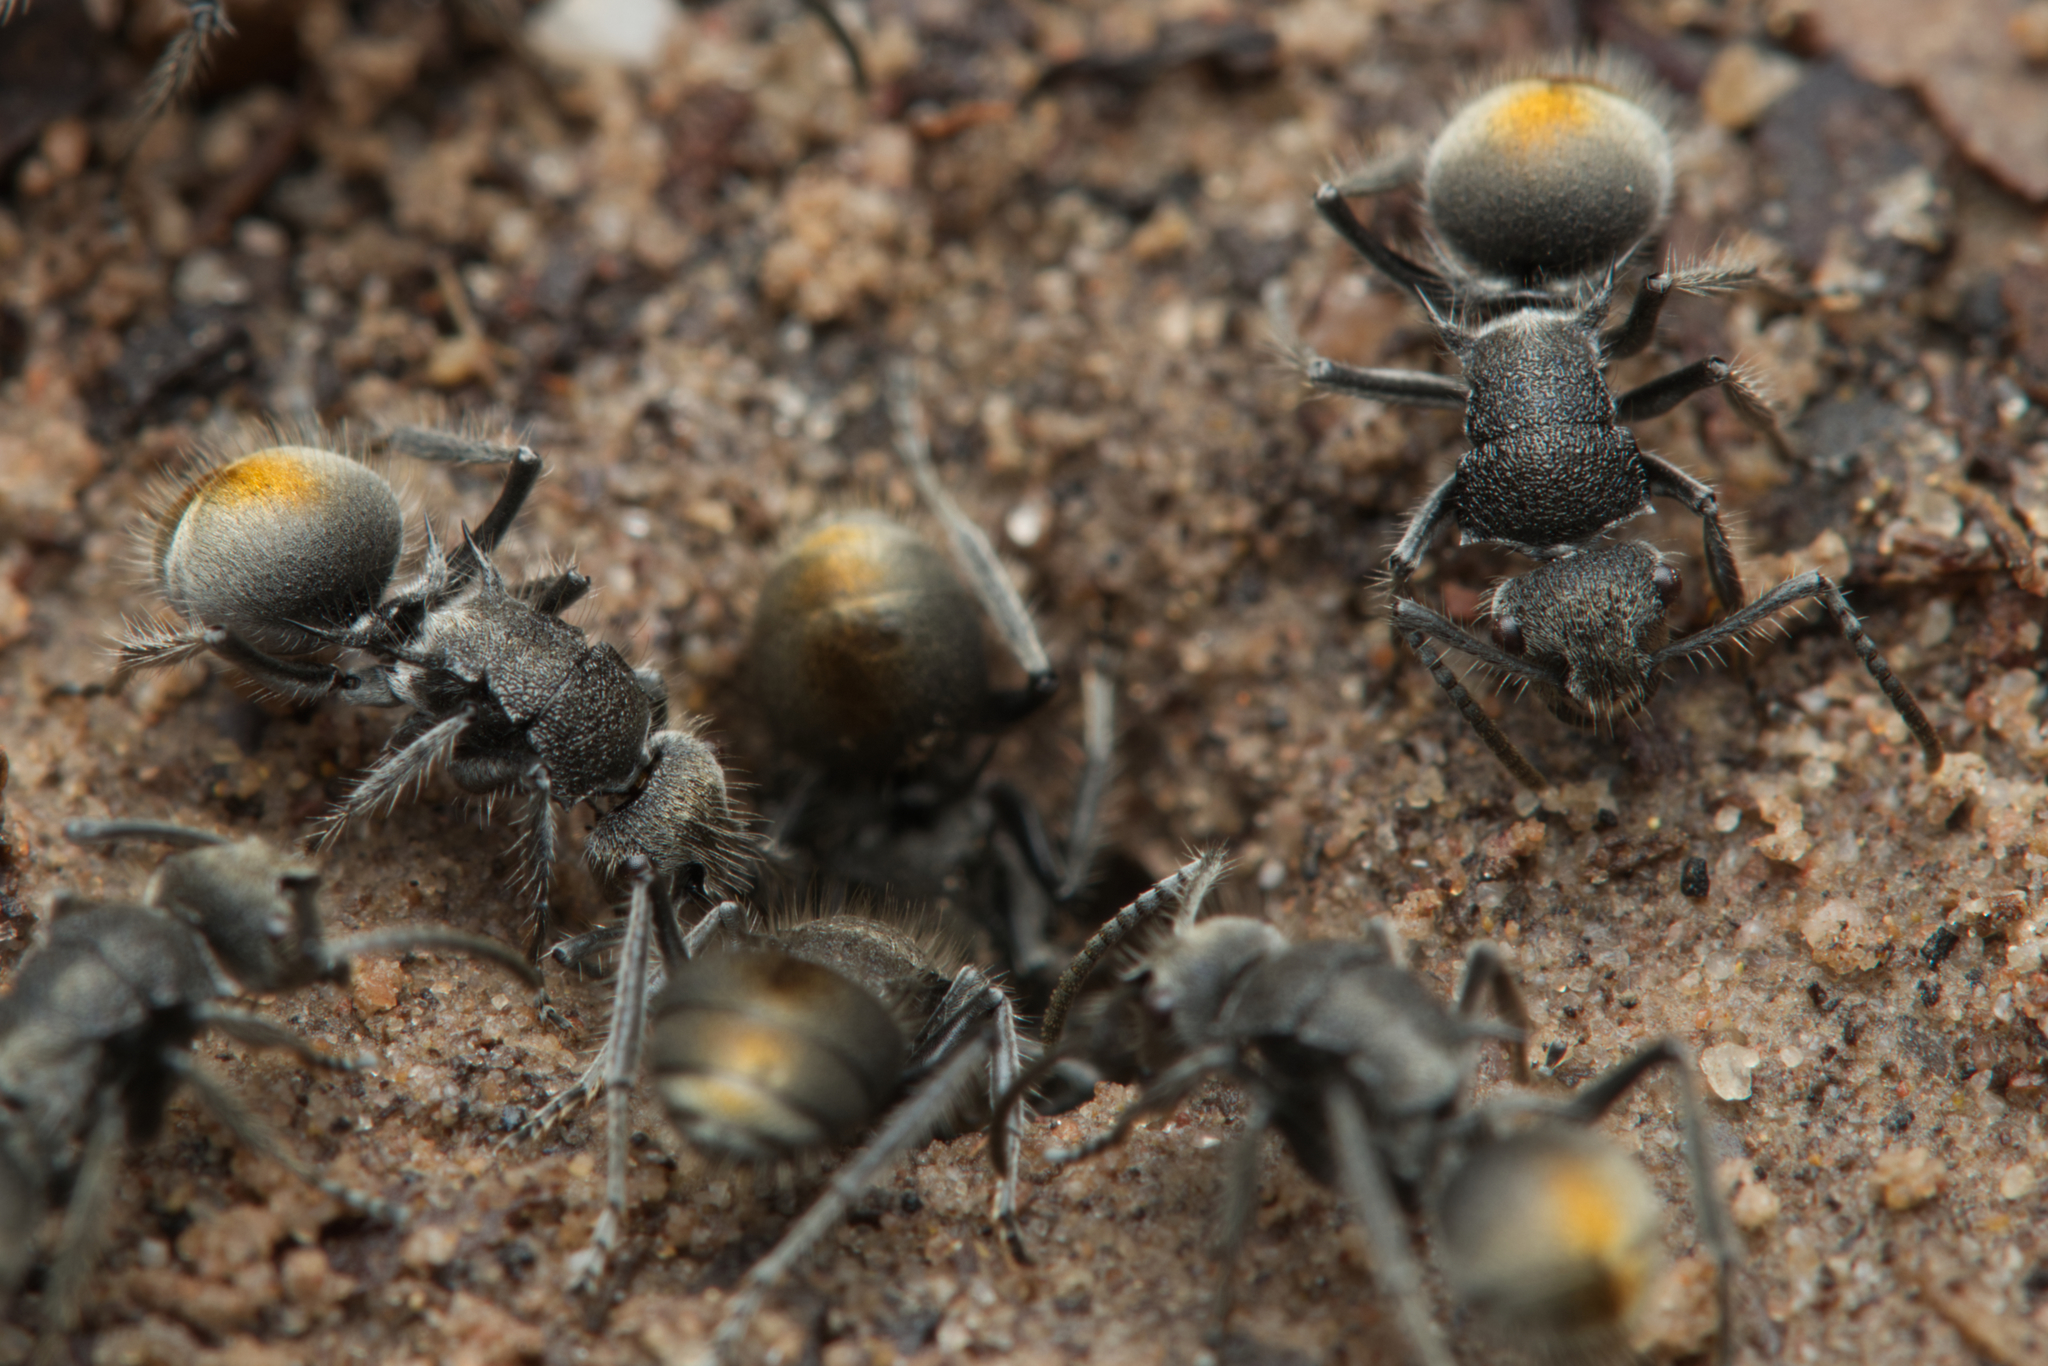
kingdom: Animalia
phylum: Arthropoda
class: Insecta
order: Hymenoptera
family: Formicidae
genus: Polyrhachis
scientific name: Polyrhachis vermiculosa
